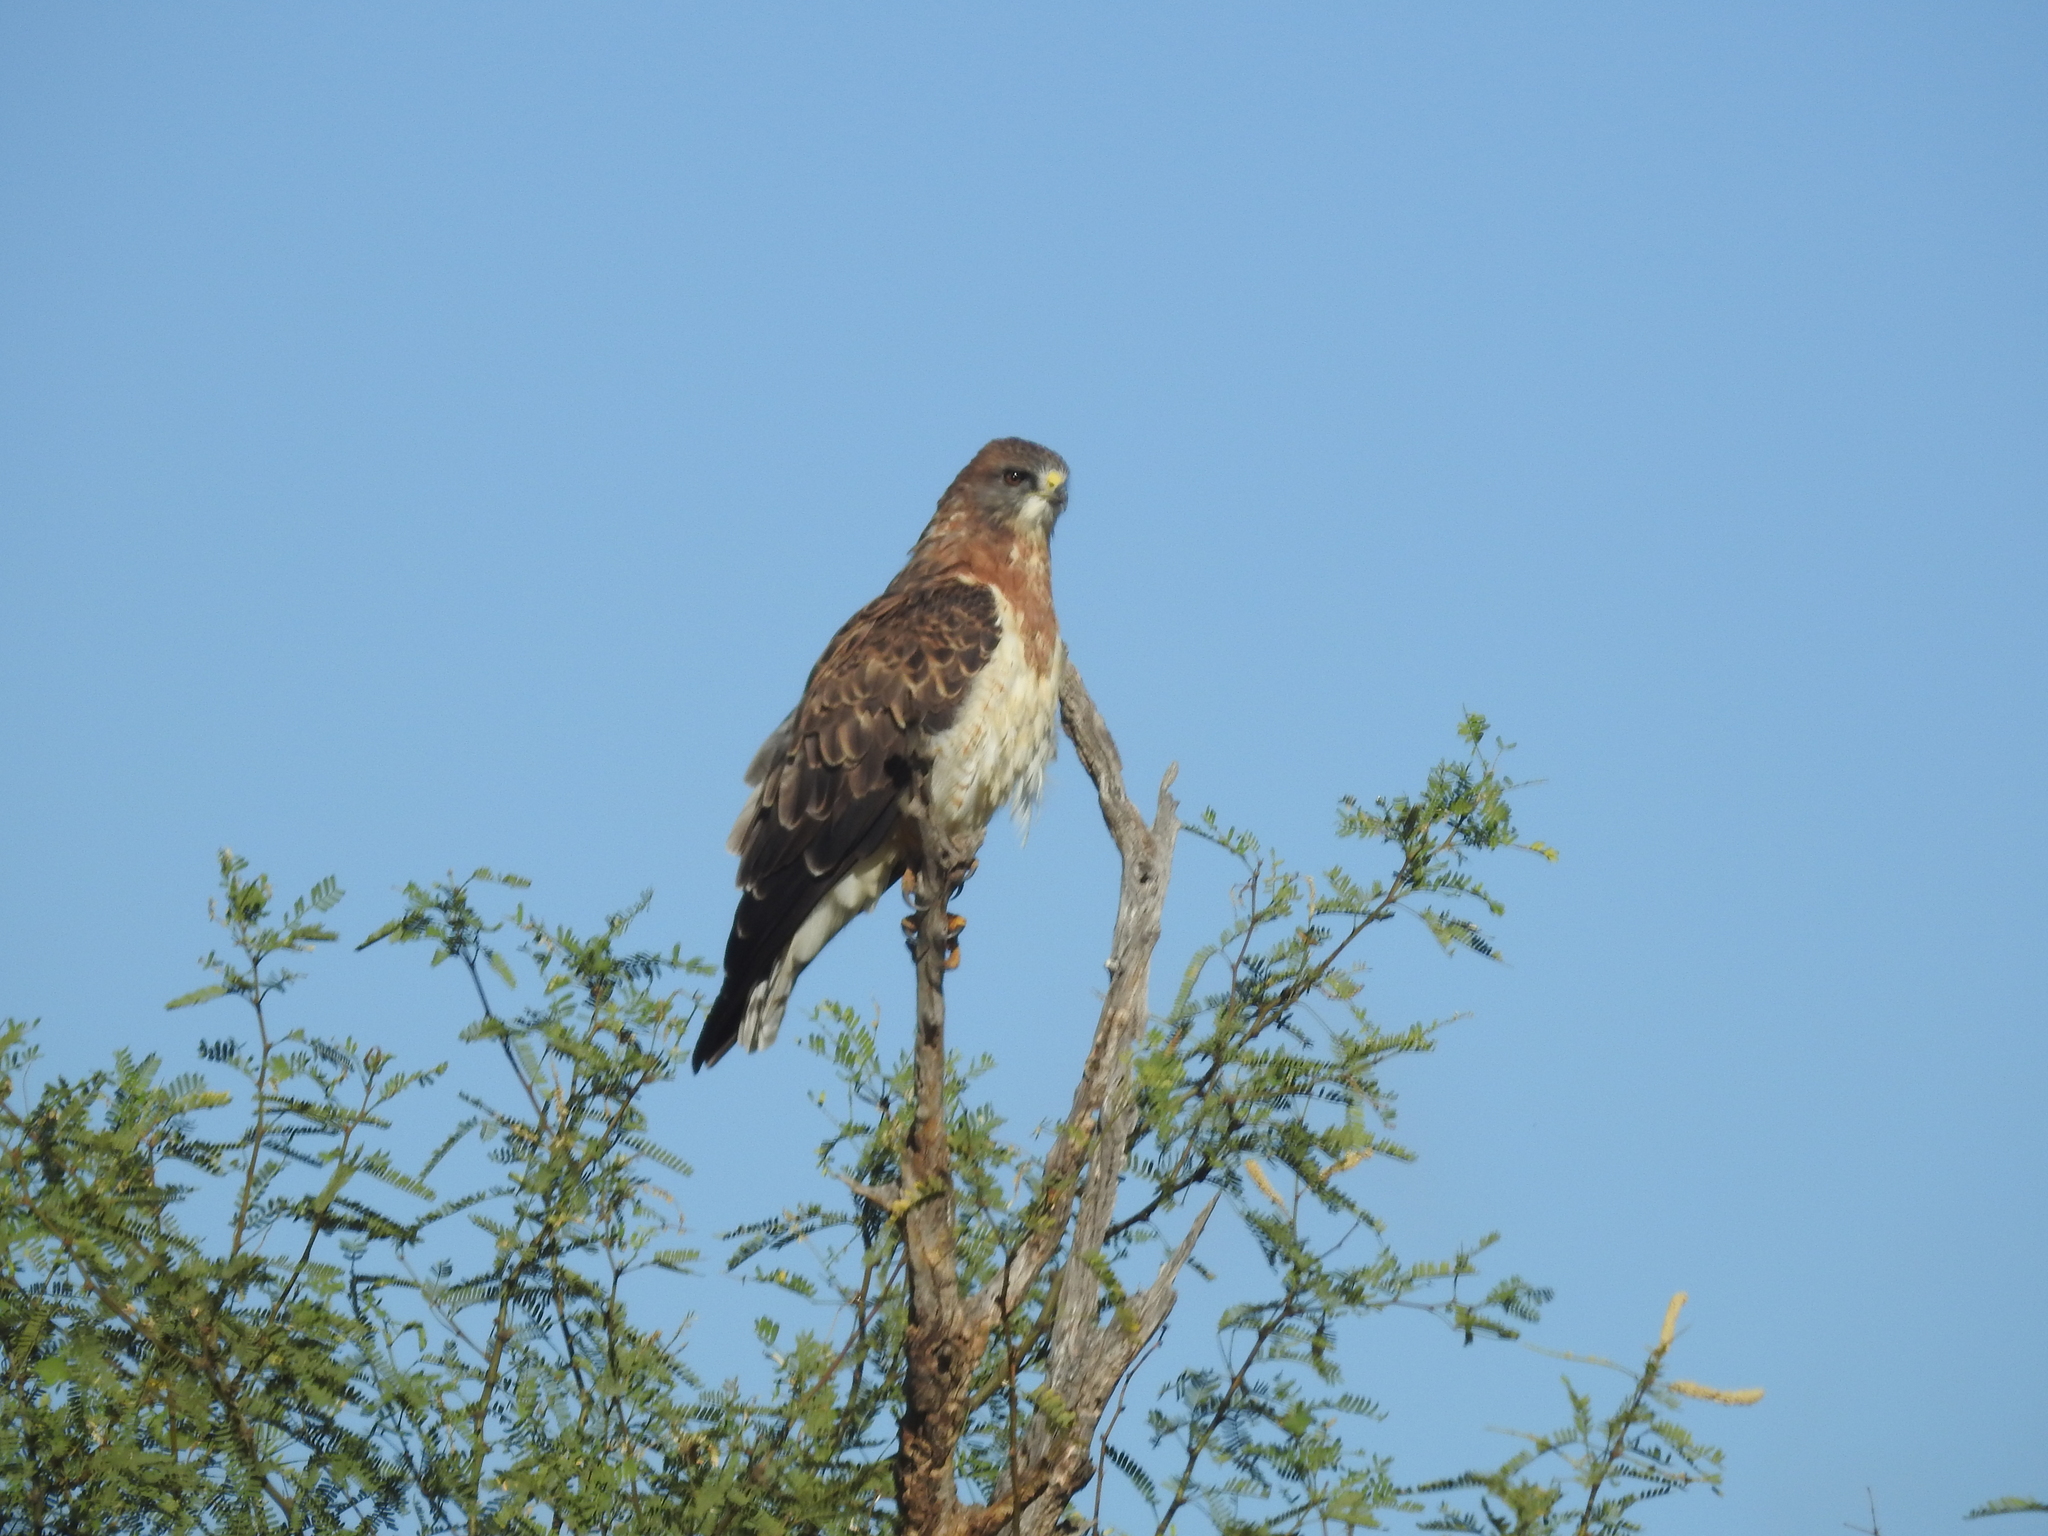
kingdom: Animalia
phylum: Chordata
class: Aves
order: Accipitriformes
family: Accipitridae
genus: Buteo
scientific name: Buteo swainsoni
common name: Swainson's hawk
